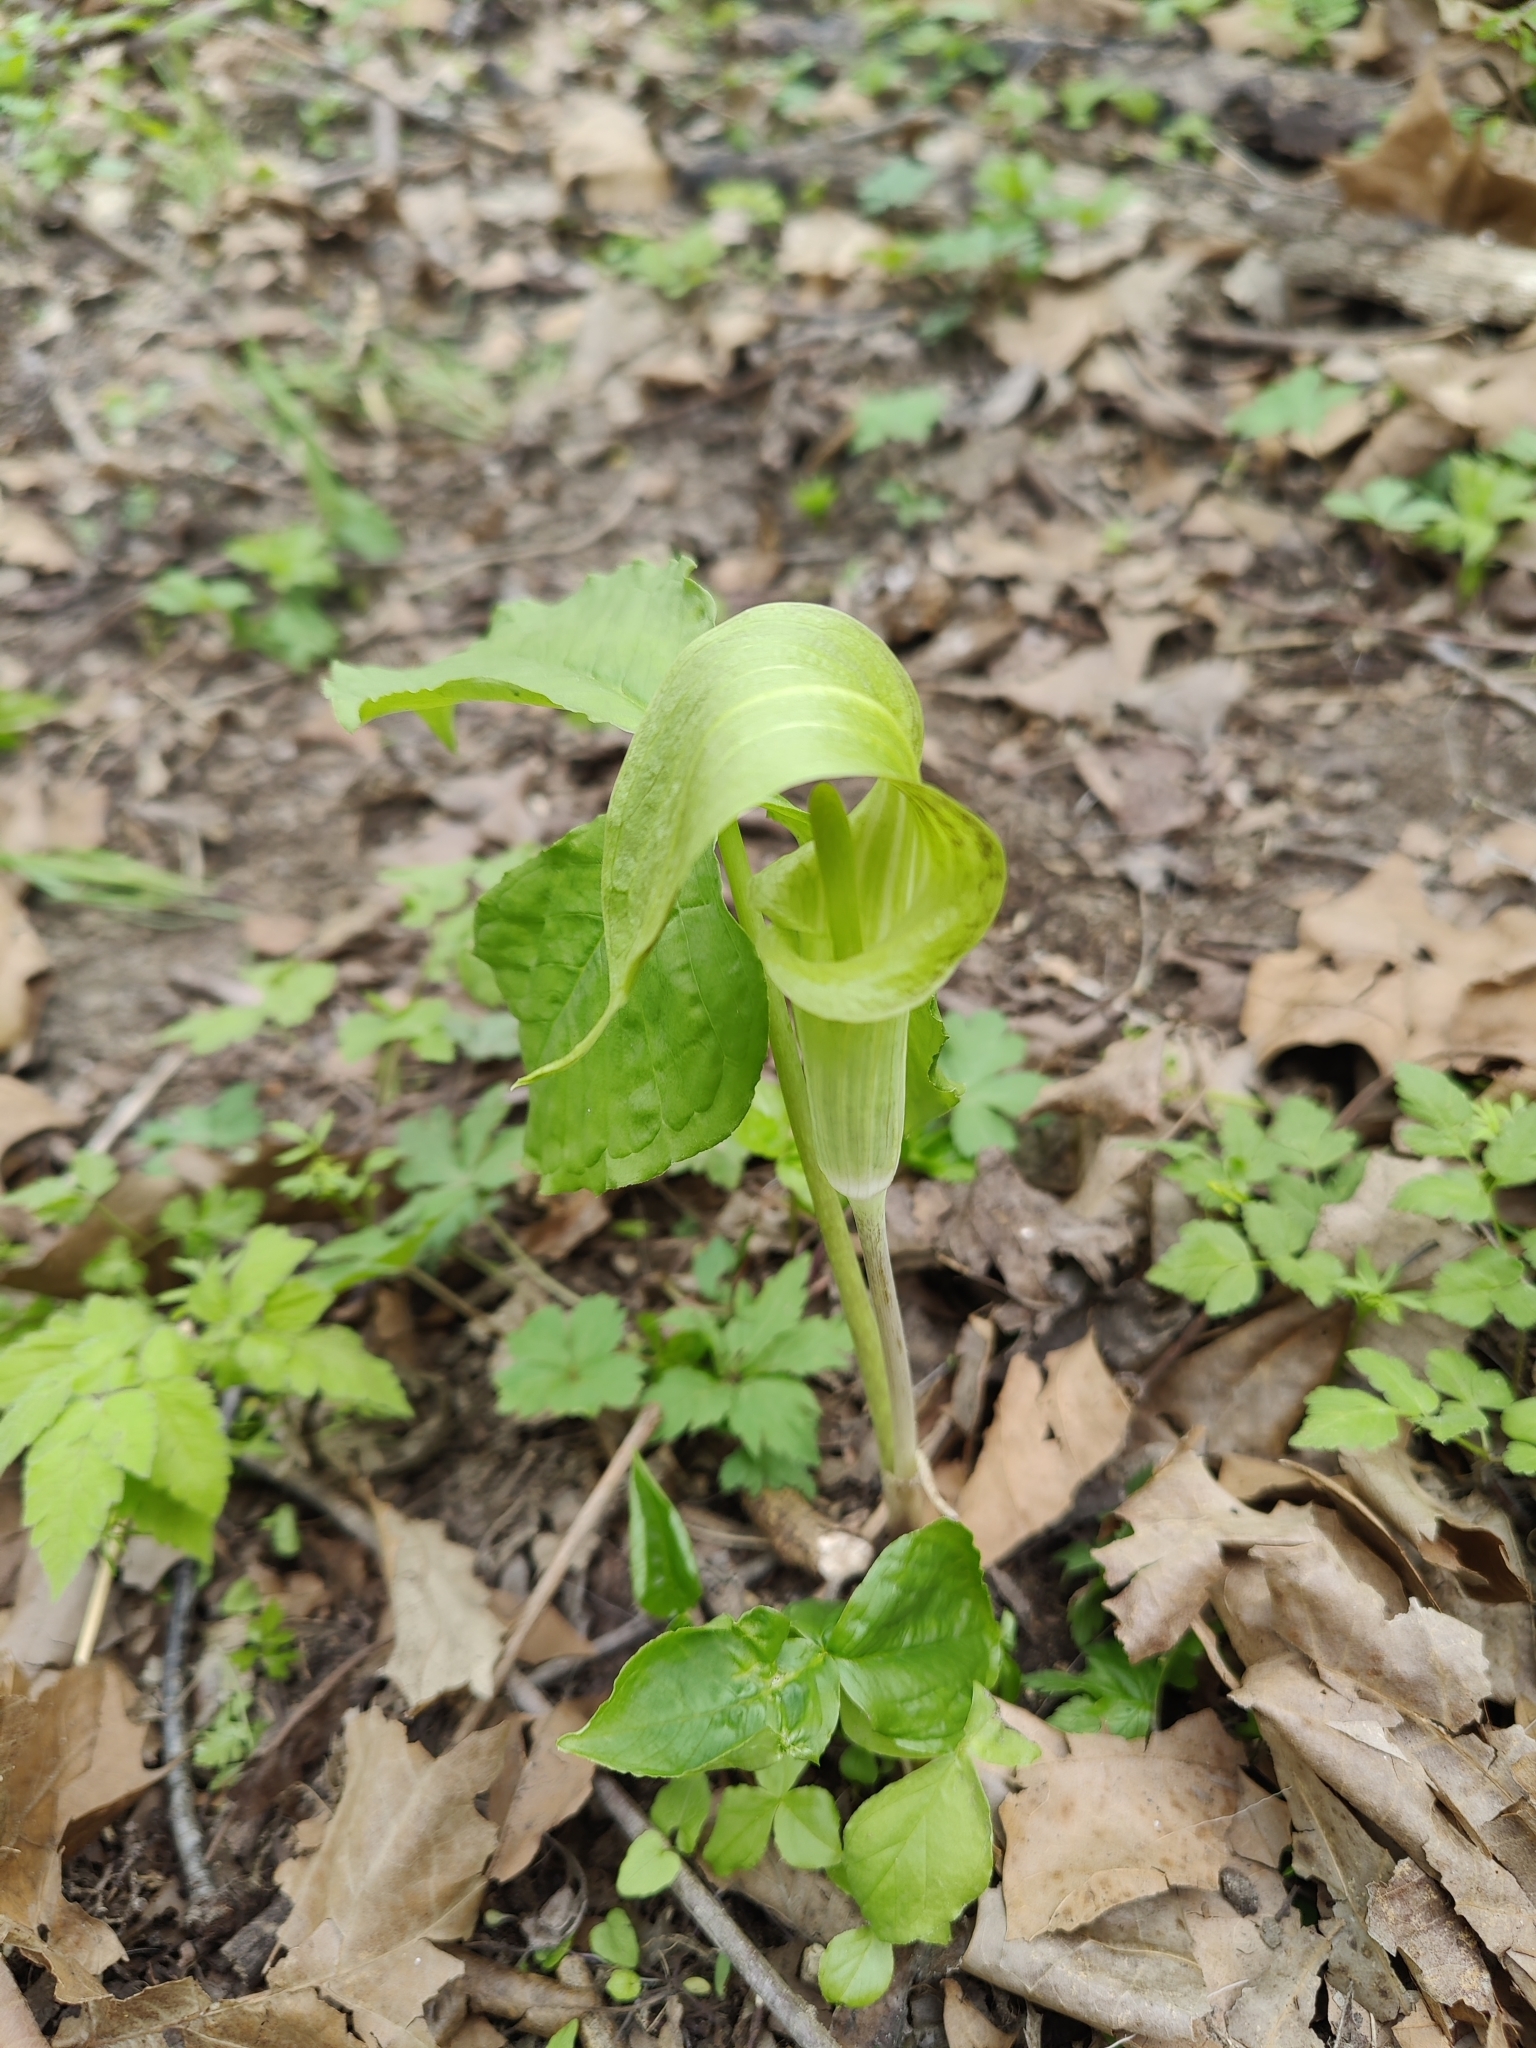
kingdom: Plantae
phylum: Tracheophyta
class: Liliopsida
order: Alismatales
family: Araceae
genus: Arisaema
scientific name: Arisaema triphyllum
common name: Jack-in-the-pulpit
